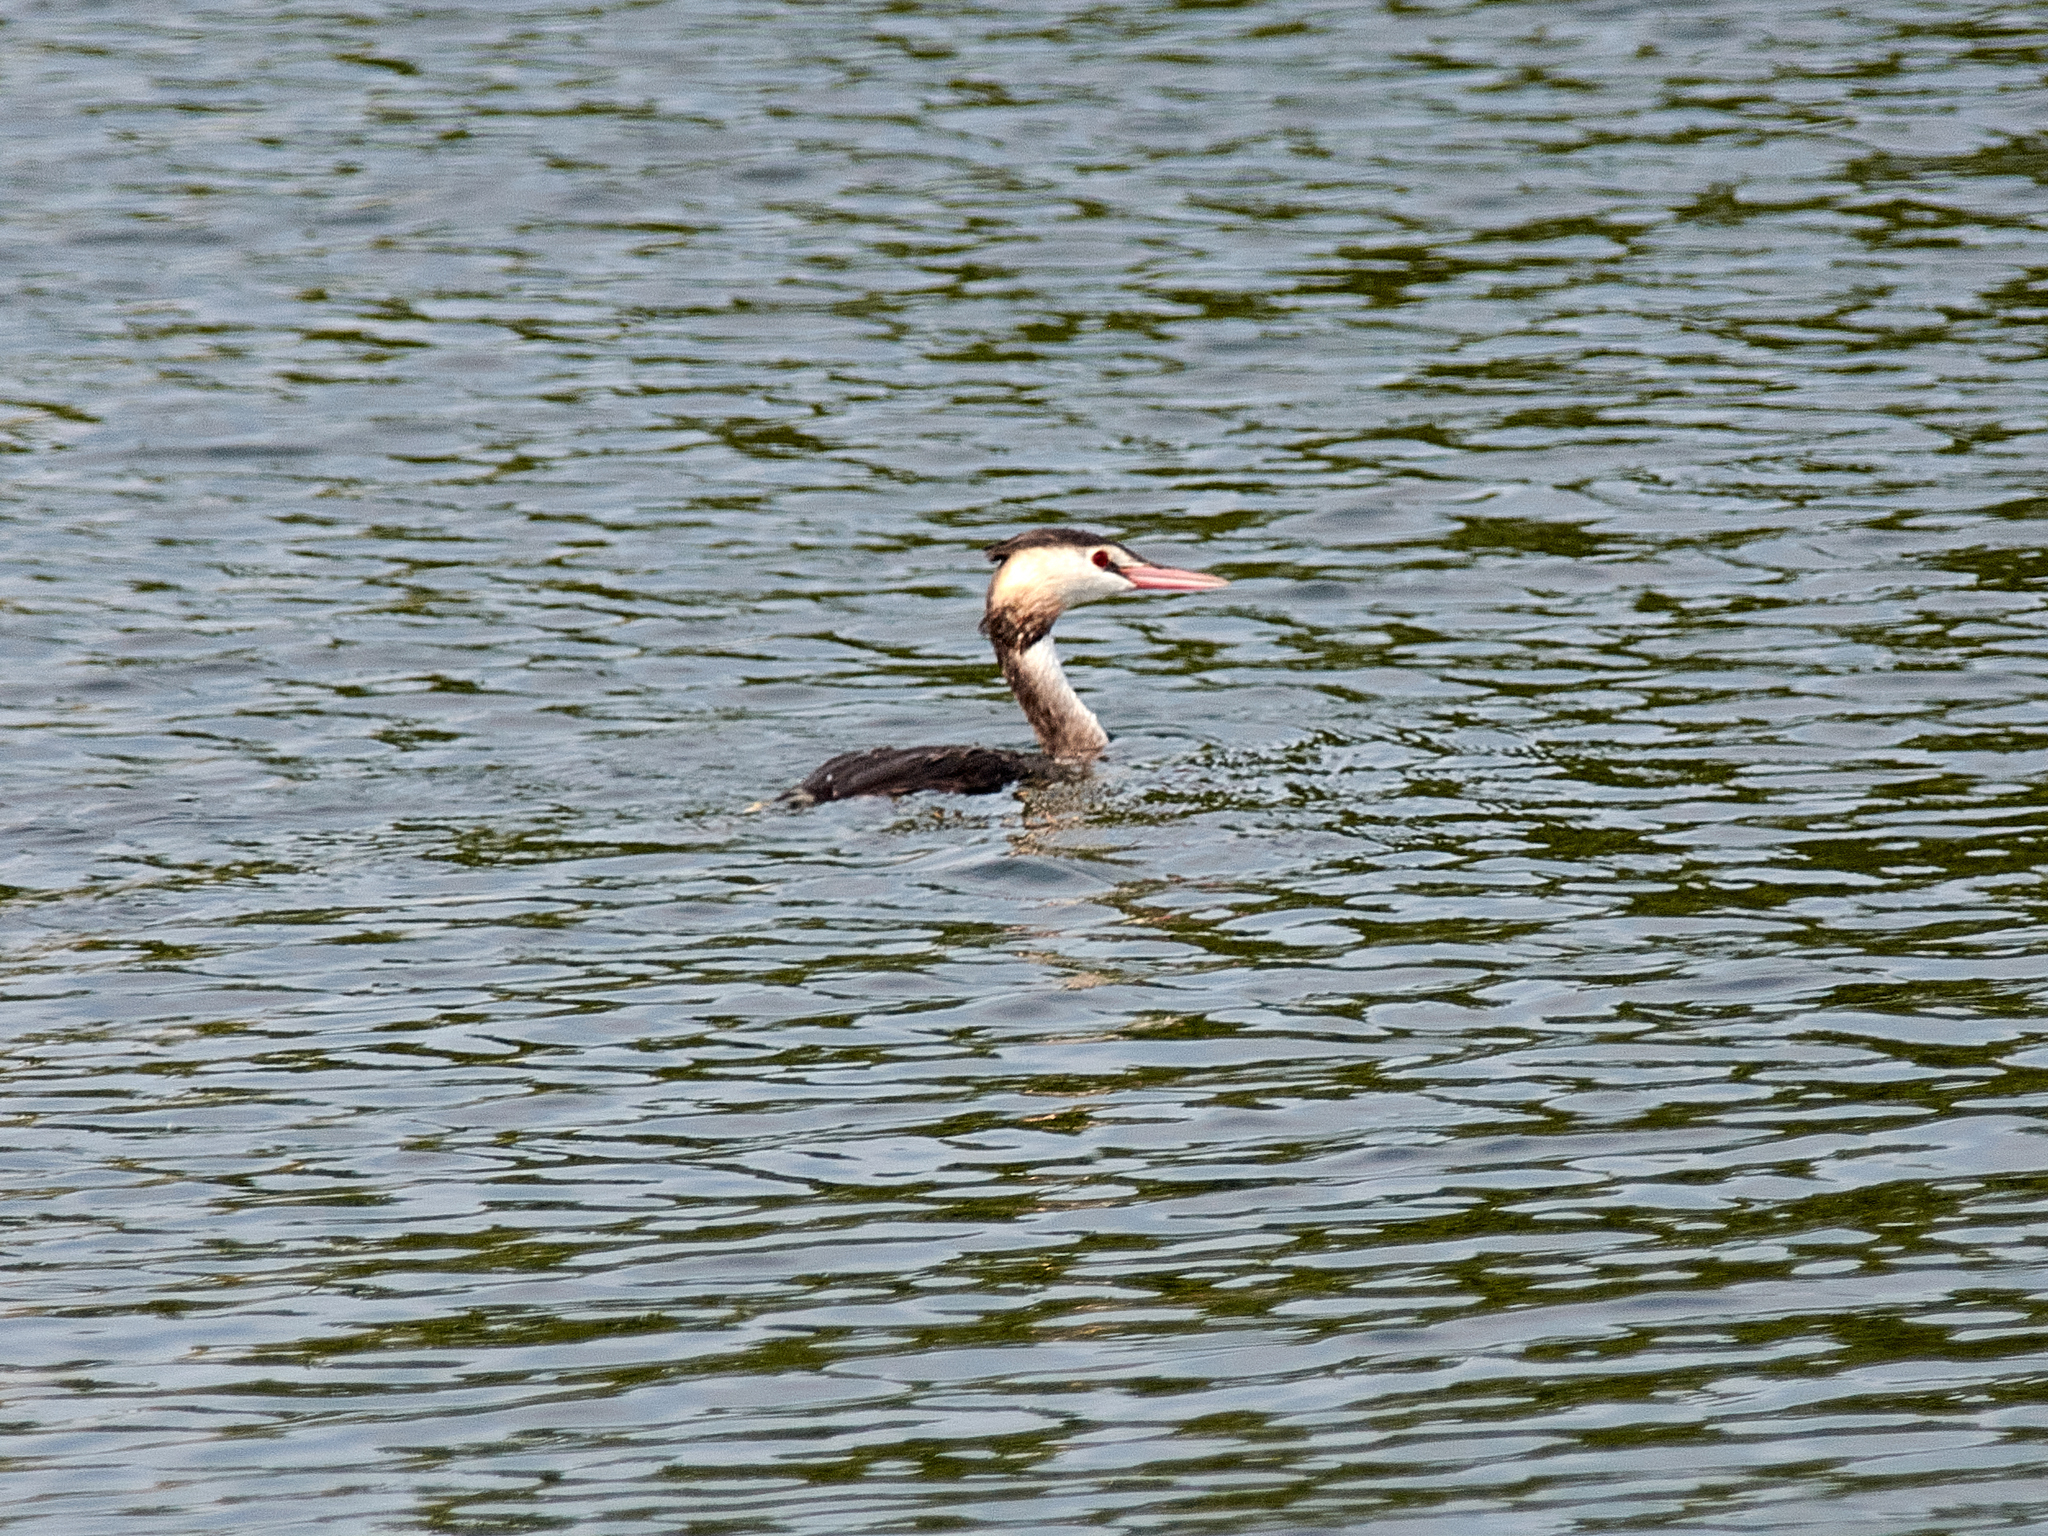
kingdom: Animalia
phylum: Chordata
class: Aves
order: Podicipediformes
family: Podicipedidae
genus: Podiceps
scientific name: Podiceps cristatus
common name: Great crested grebe
